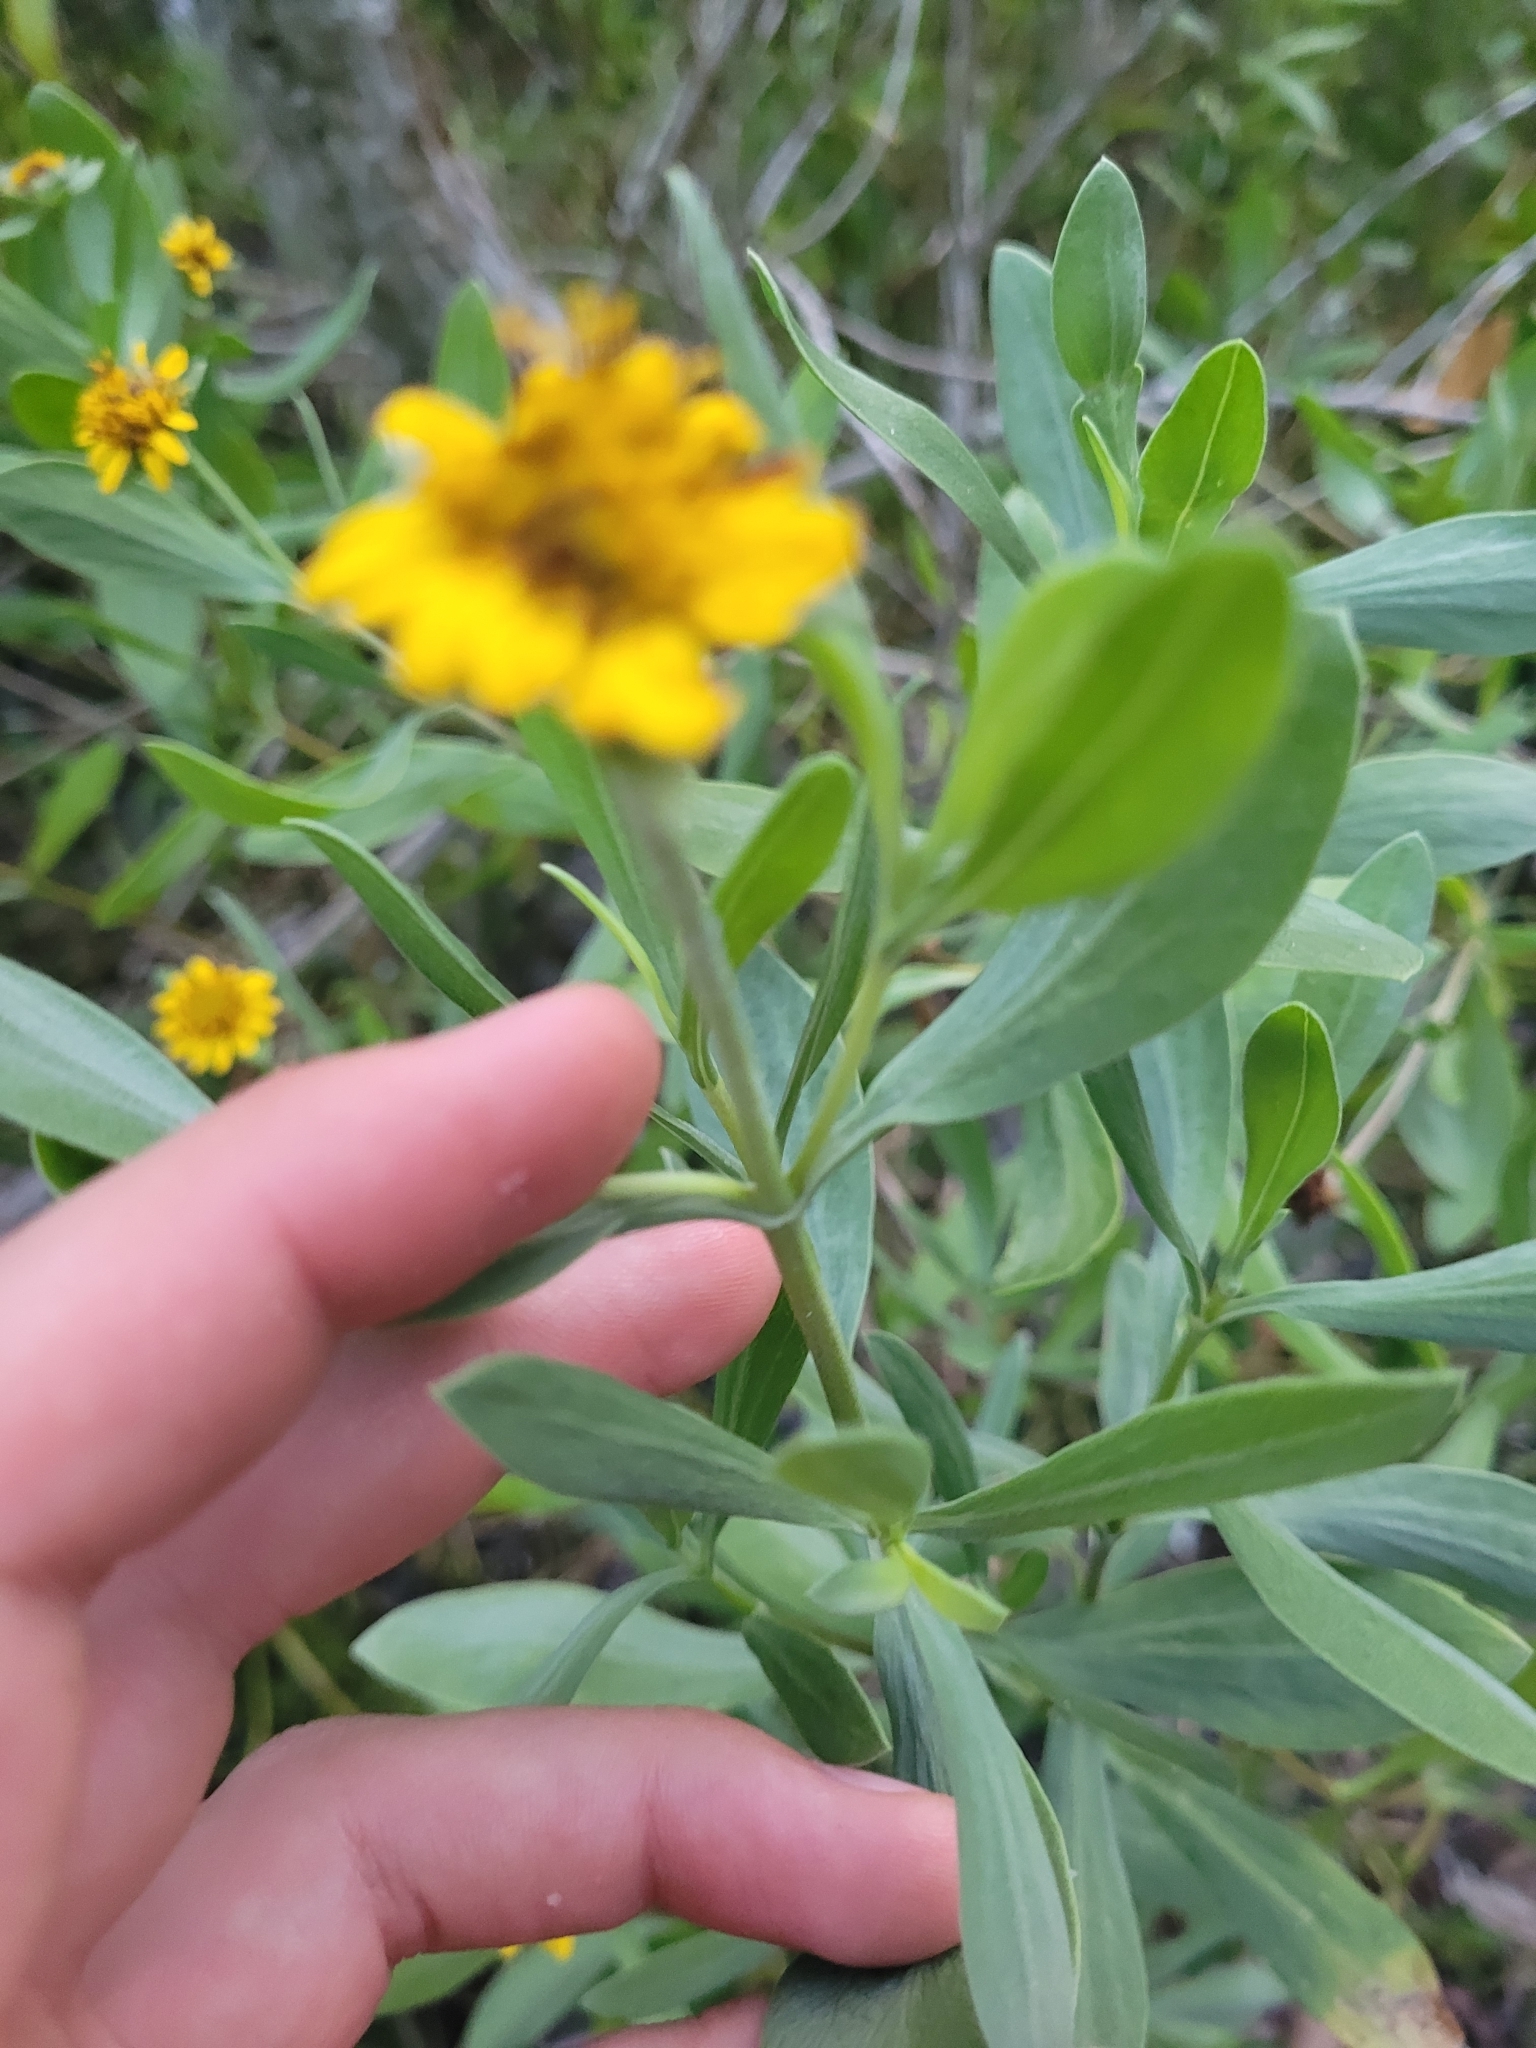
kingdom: Plantae
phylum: Tracheophyta
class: Magnoliopsida
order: Asterales
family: Asteraceae
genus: Borrichia
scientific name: Borrichia frutescens
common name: Sea oxeye
